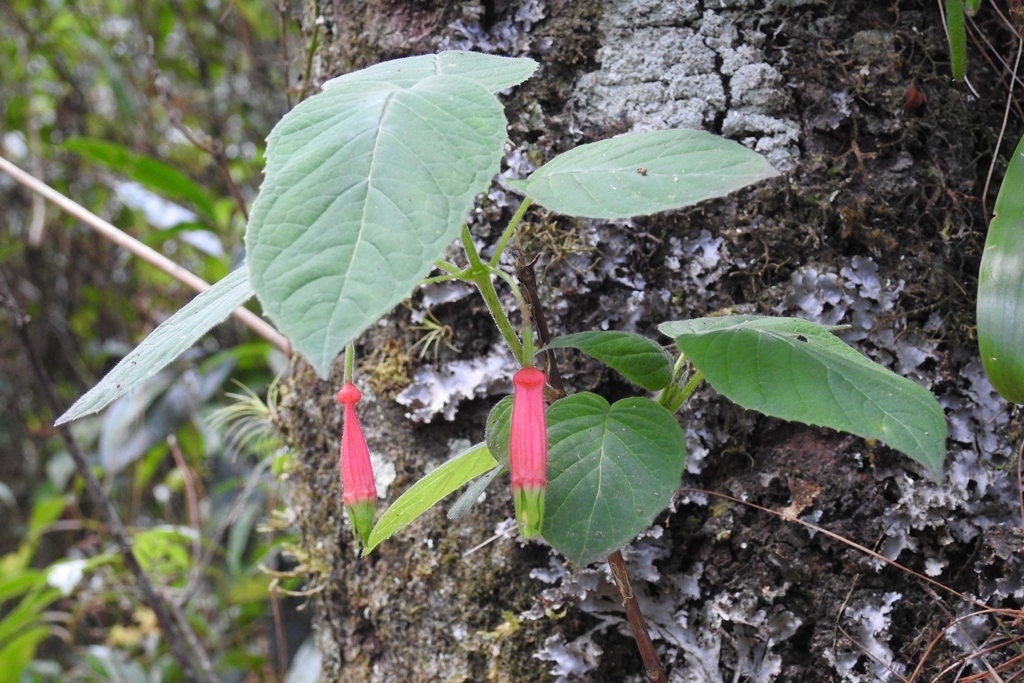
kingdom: Plantae
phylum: Tracheophyta
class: Magnoliopsida
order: Myrtales
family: Onagraceae
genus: Fuchsia
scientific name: Fuchsia splendens
